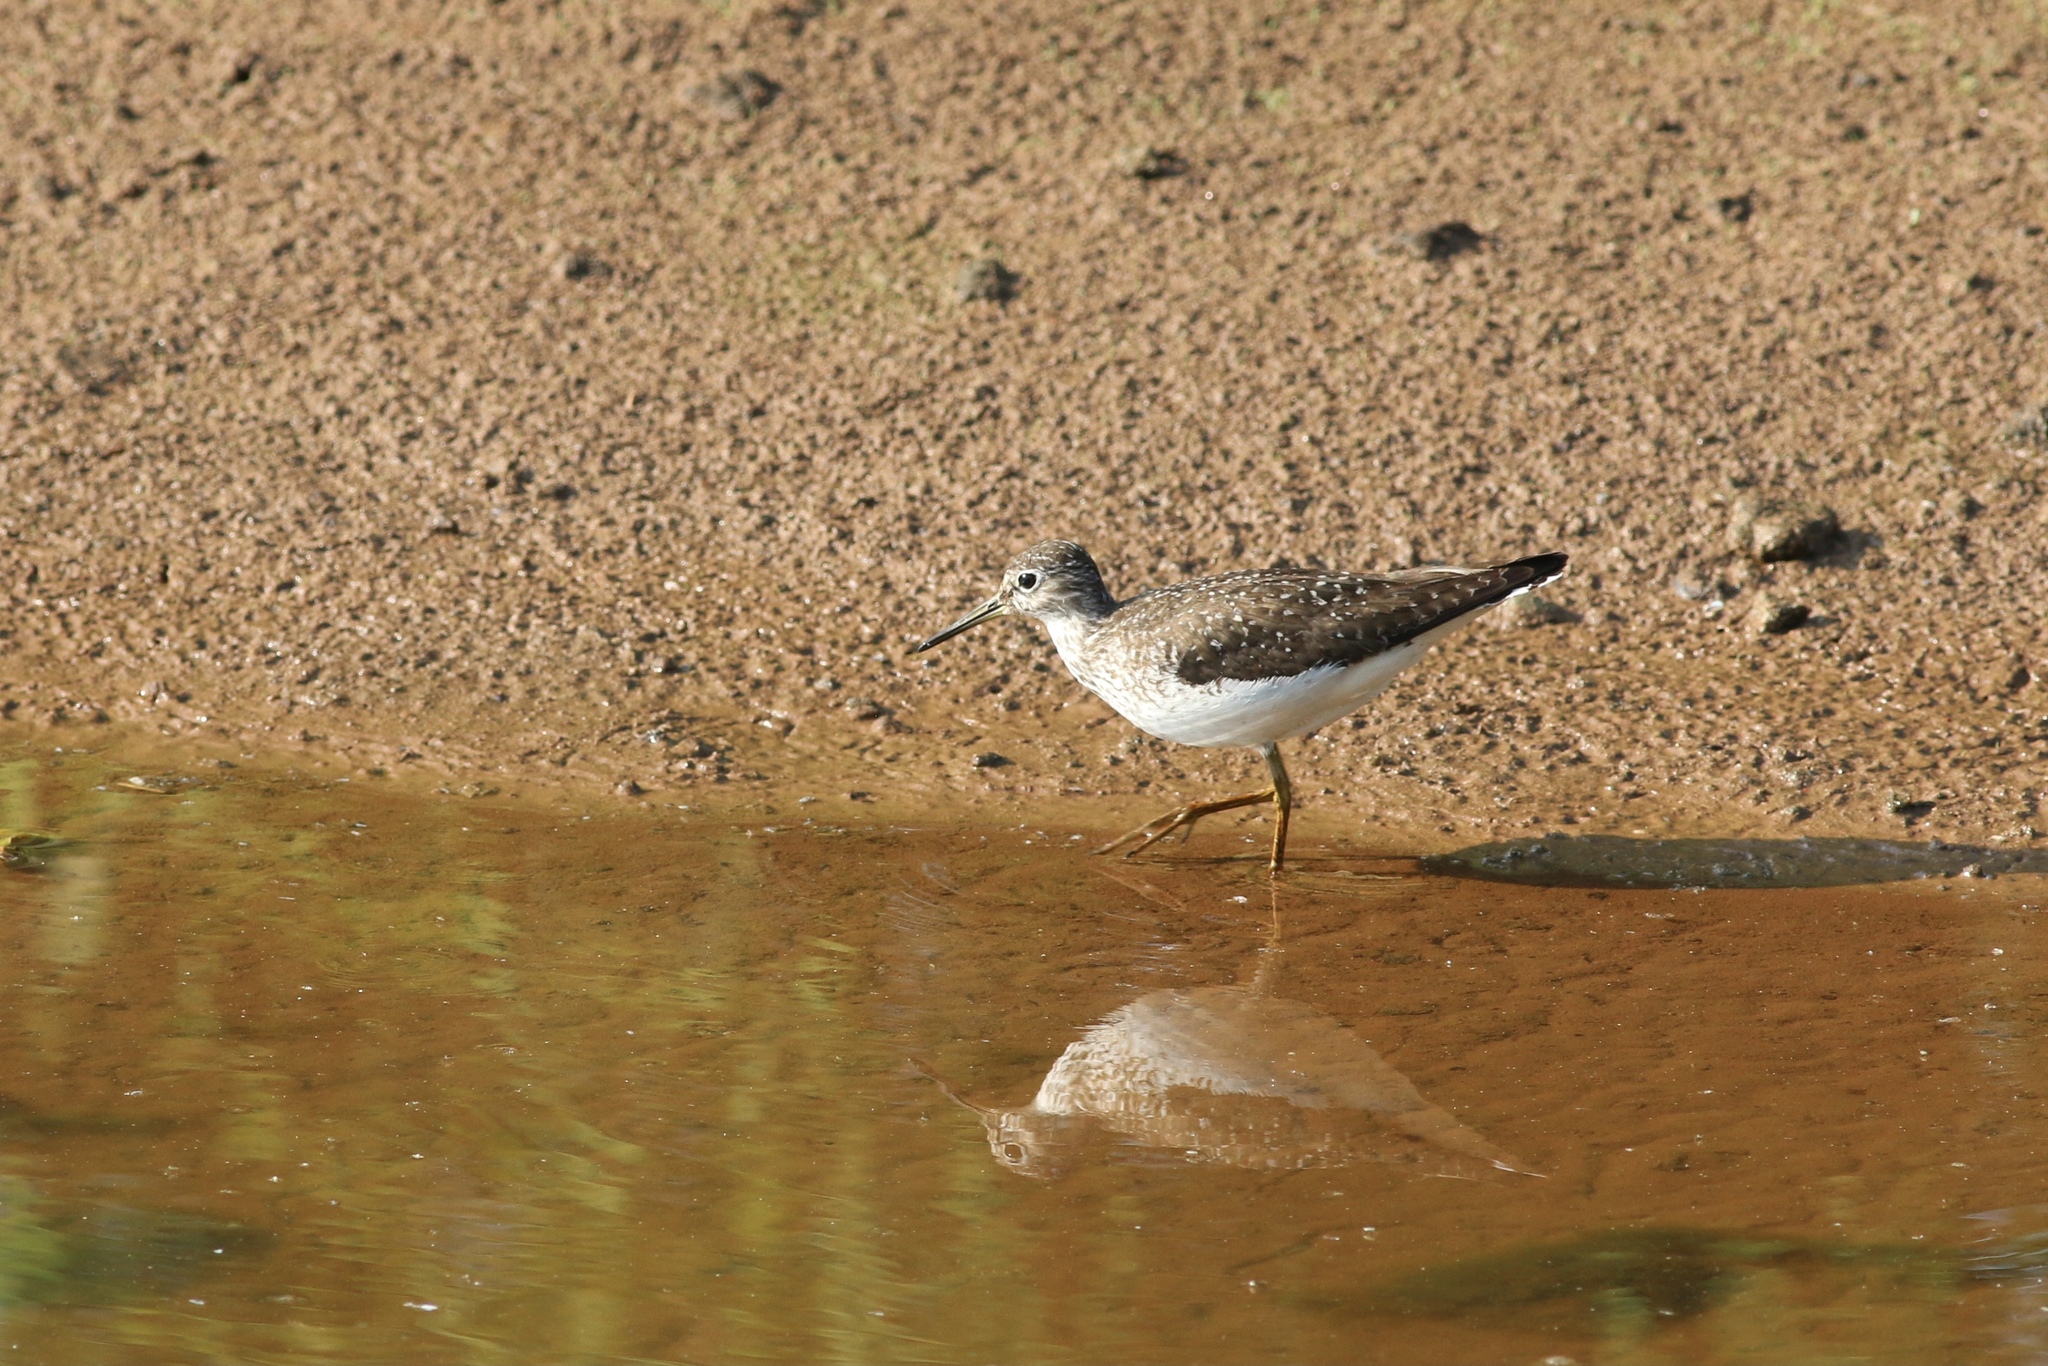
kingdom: Animalia
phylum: Chordata
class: Aves
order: Charadriiformes
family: Scolopacidae
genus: Tringa
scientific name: Tringa solitaria
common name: Solitary sandpiper
